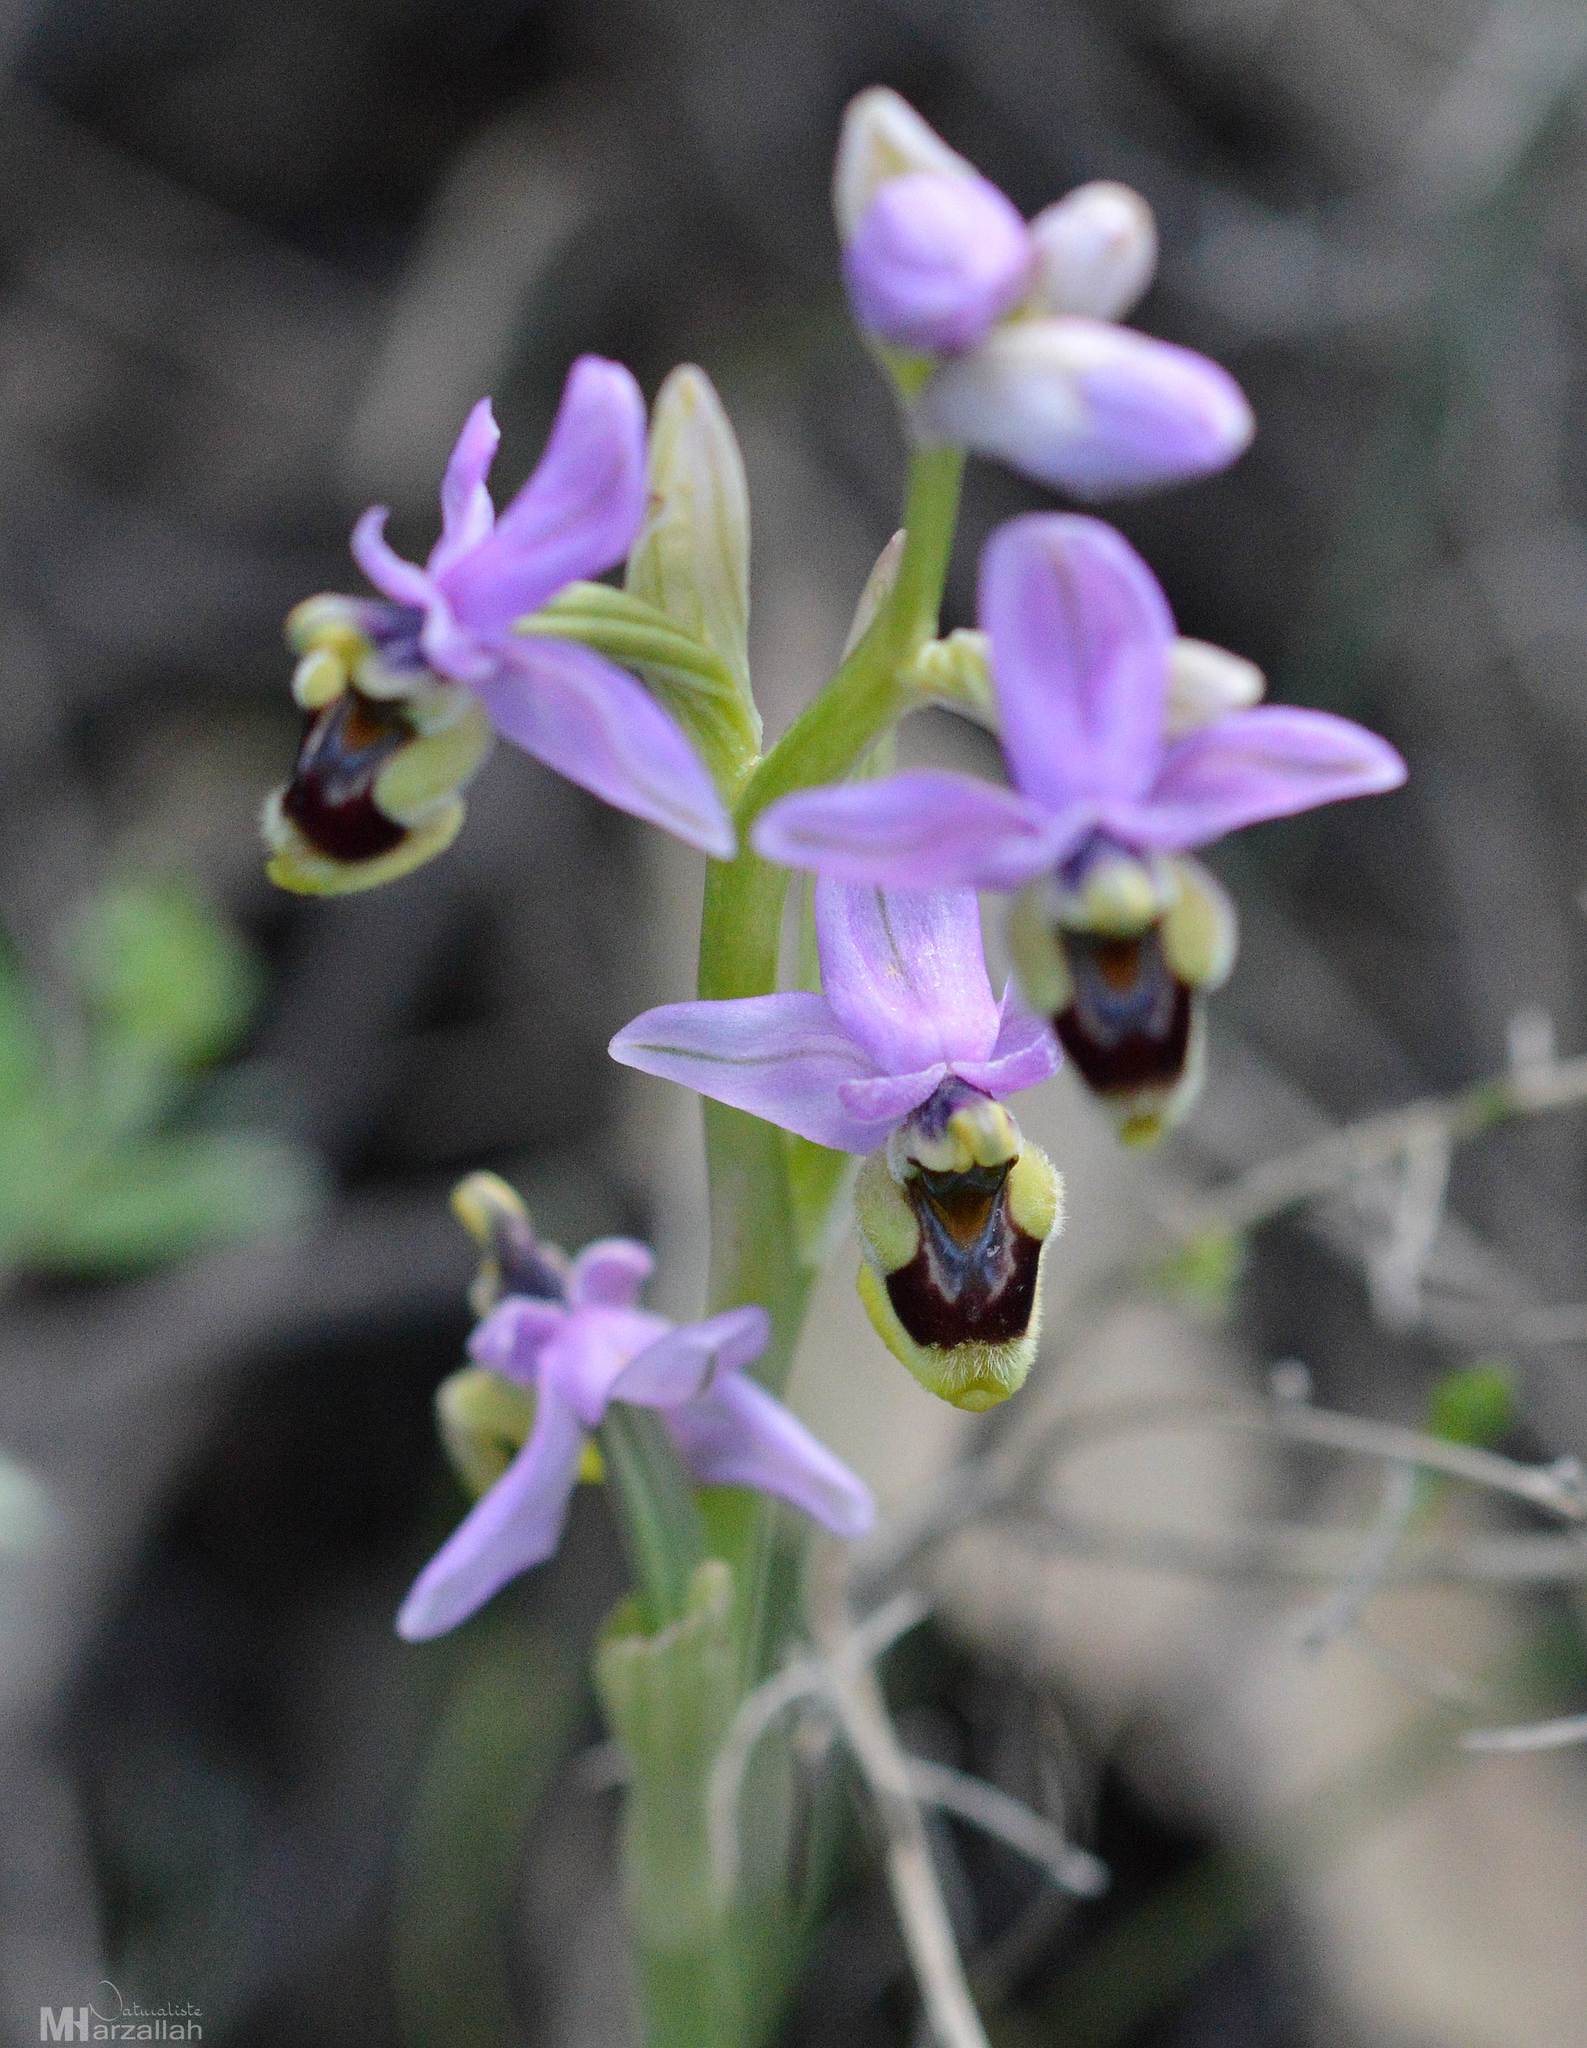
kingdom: Plantae
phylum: Tracheophyta
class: Liliopsida
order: Asparagales
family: Orchidaceae
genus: Ophrys
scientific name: Ophrys tenthredinifera
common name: Sawfly orchid
